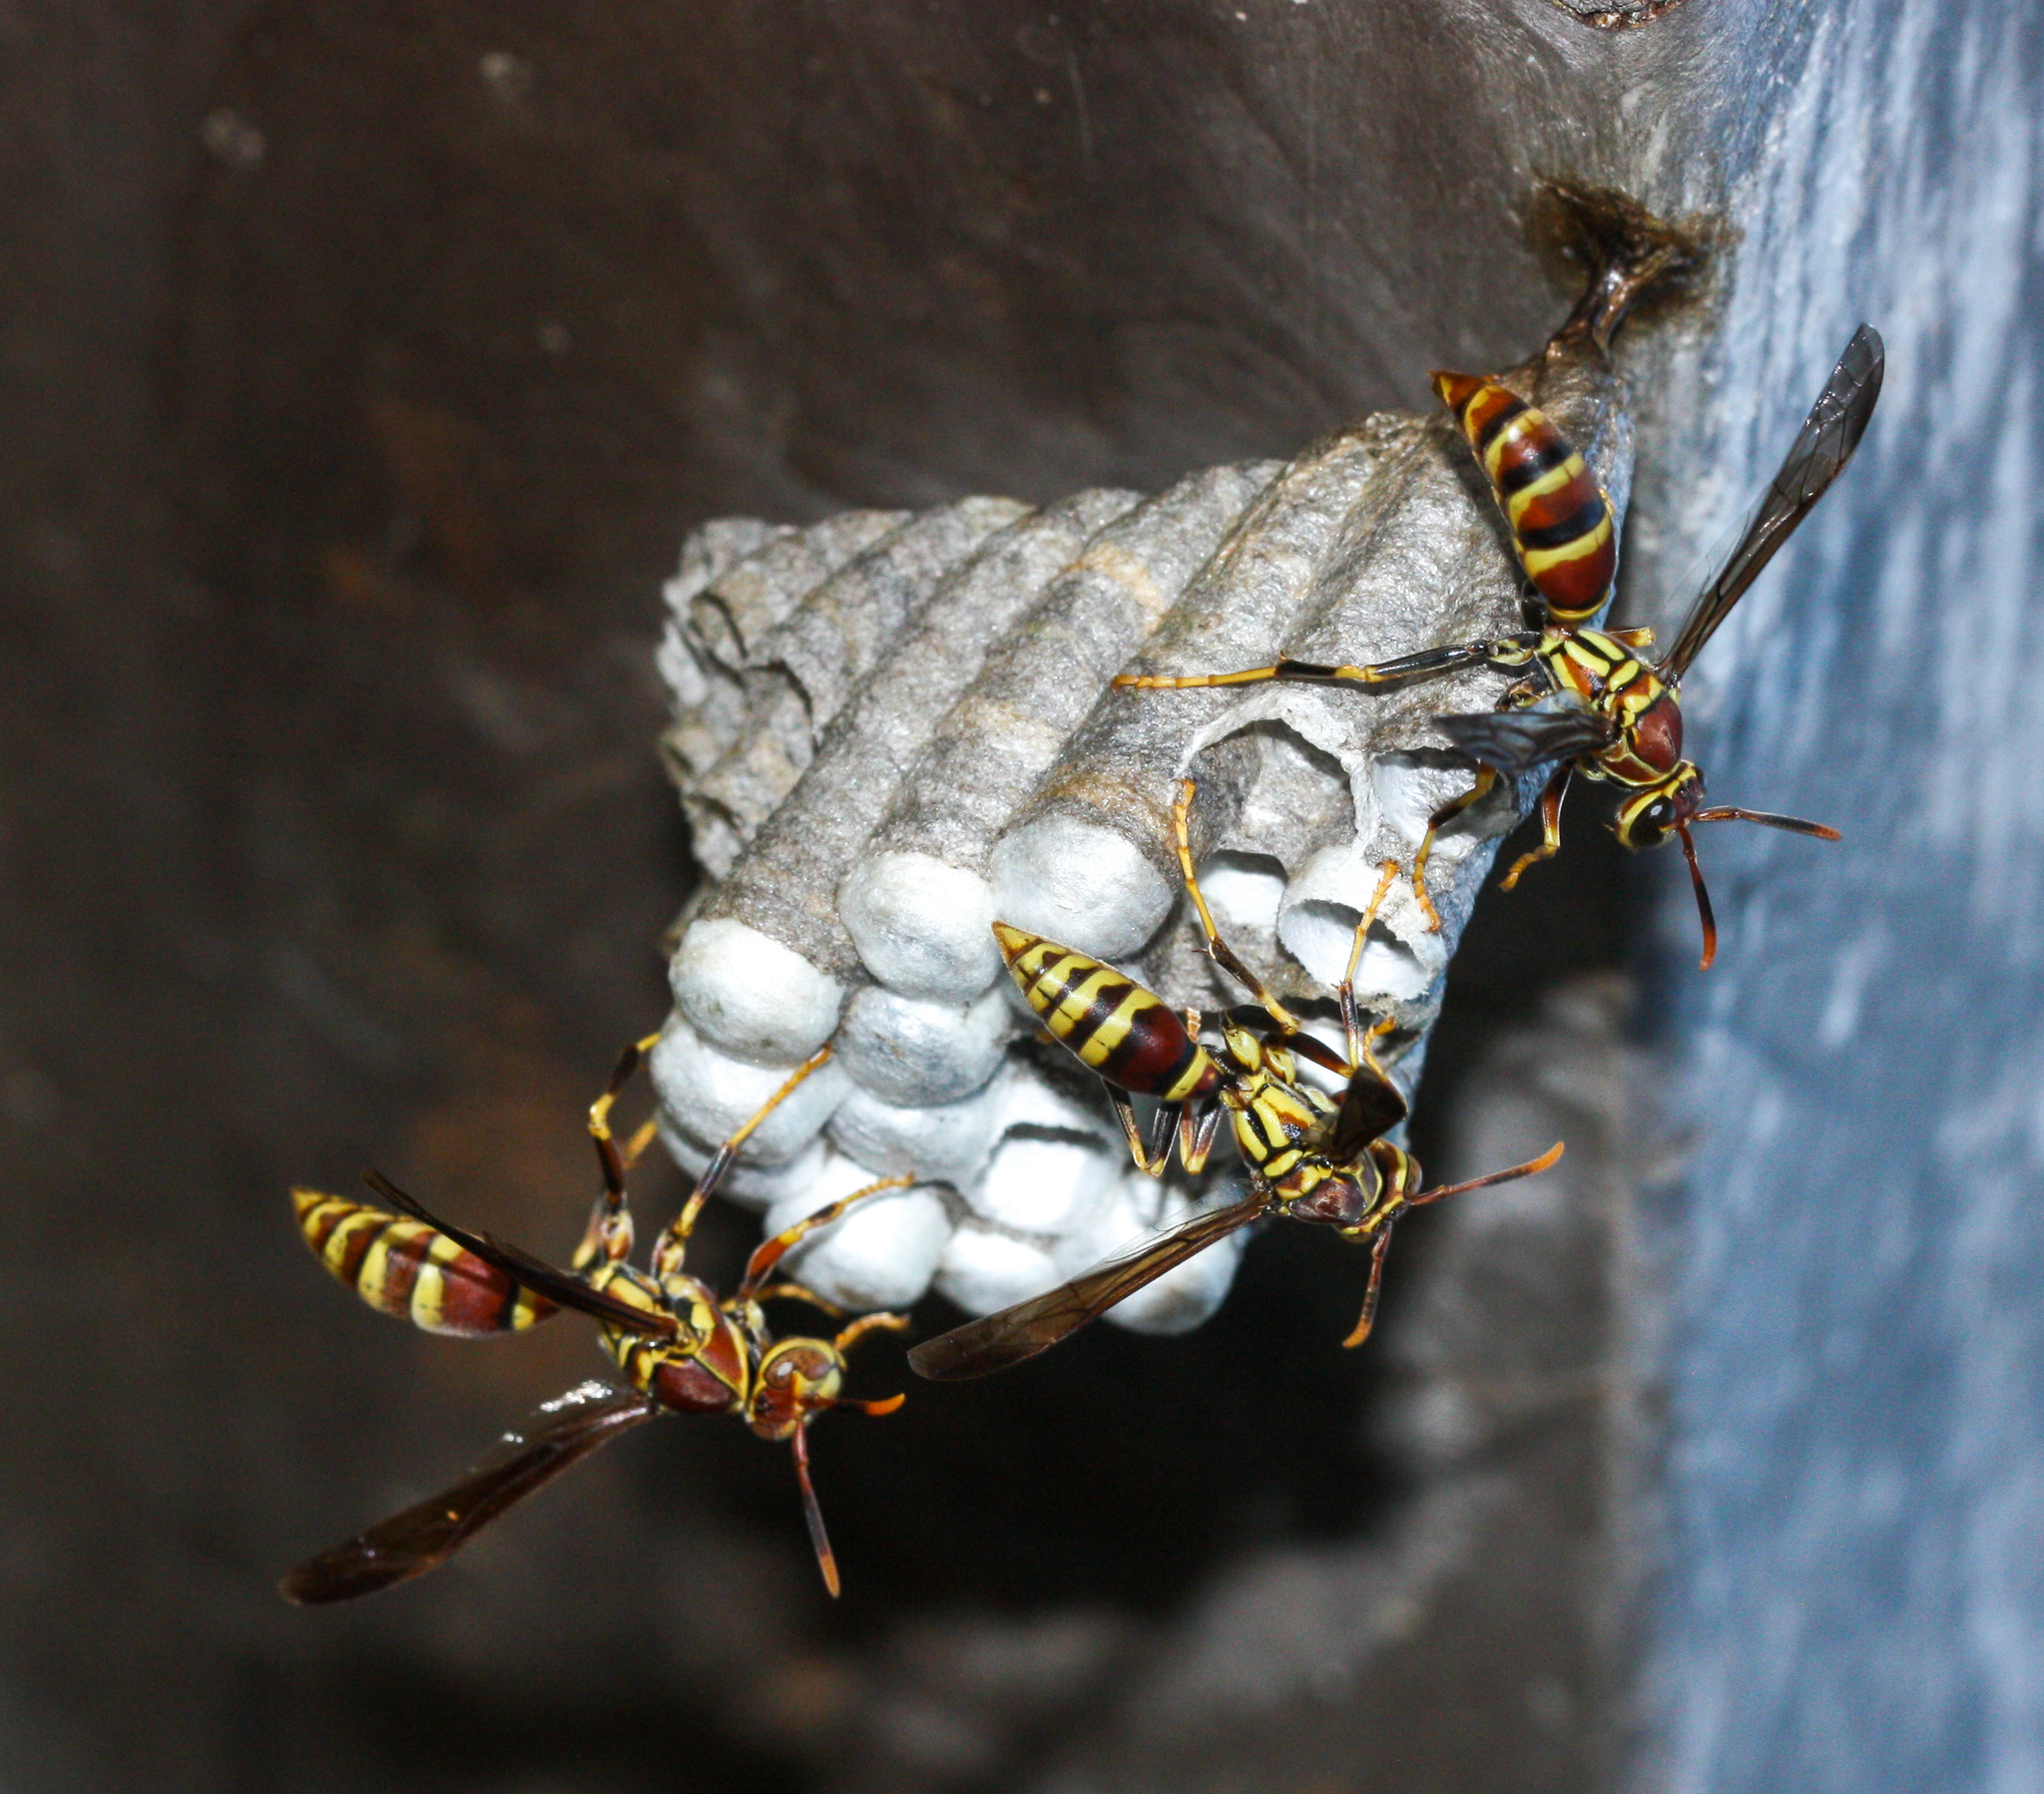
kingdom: Animalia
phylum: Arthropoda
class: Insecta
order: Hymenoptera
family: Eumenidae
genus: Polistes
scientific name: Polistes exclamans
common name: Paper wasp
